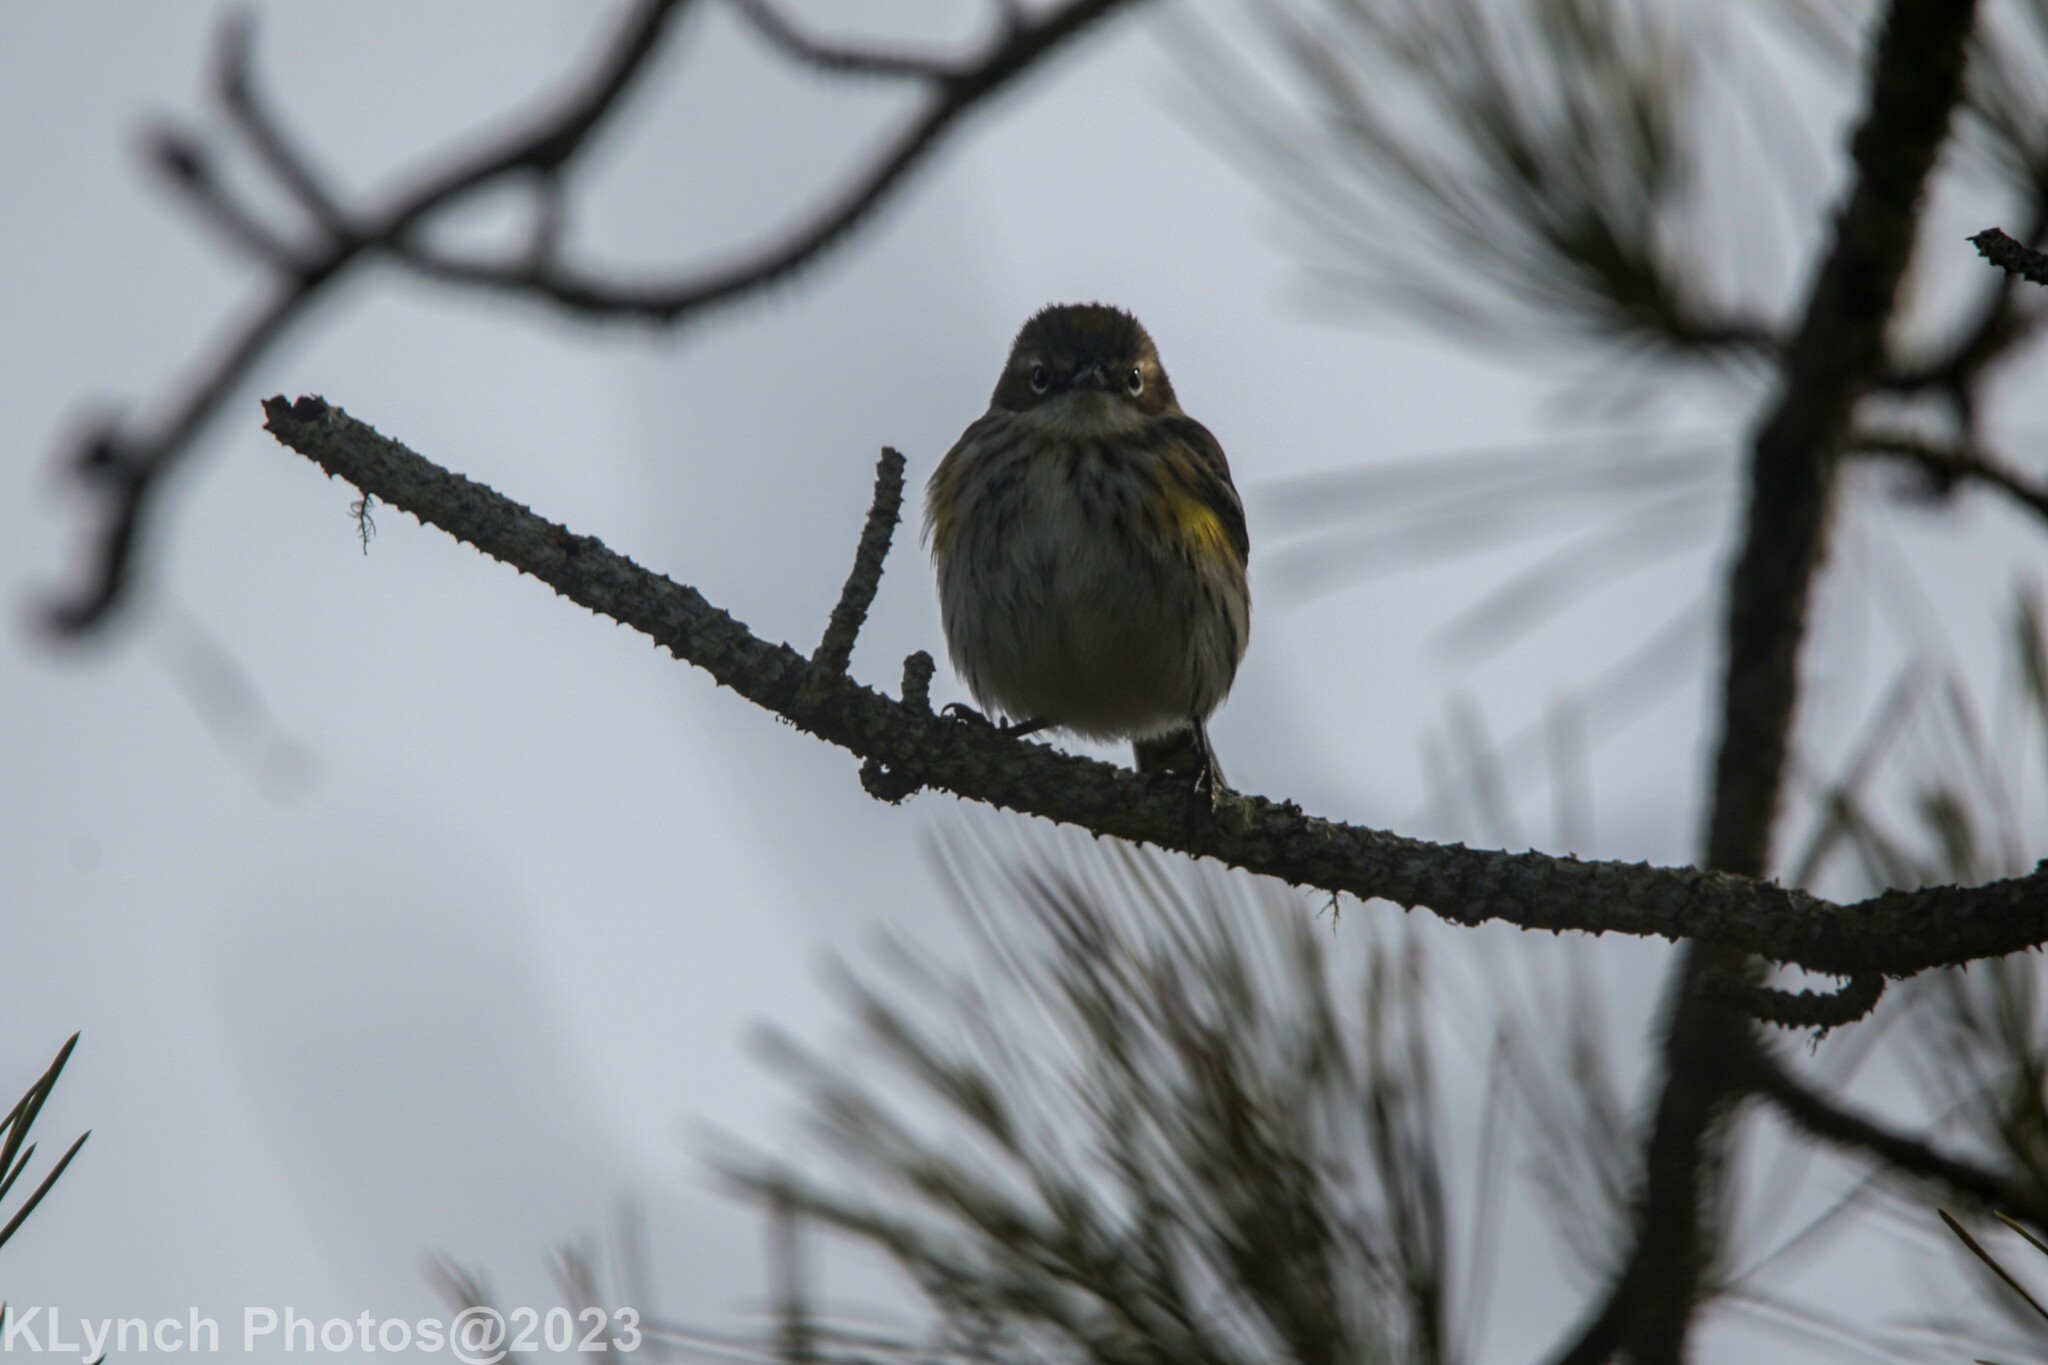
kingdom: Animalia
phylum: Chordata
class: Aves
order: Passeriformes
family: Parulidae
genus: Setophaga
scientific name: Setophaga coronata
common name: Myrtle warbler
